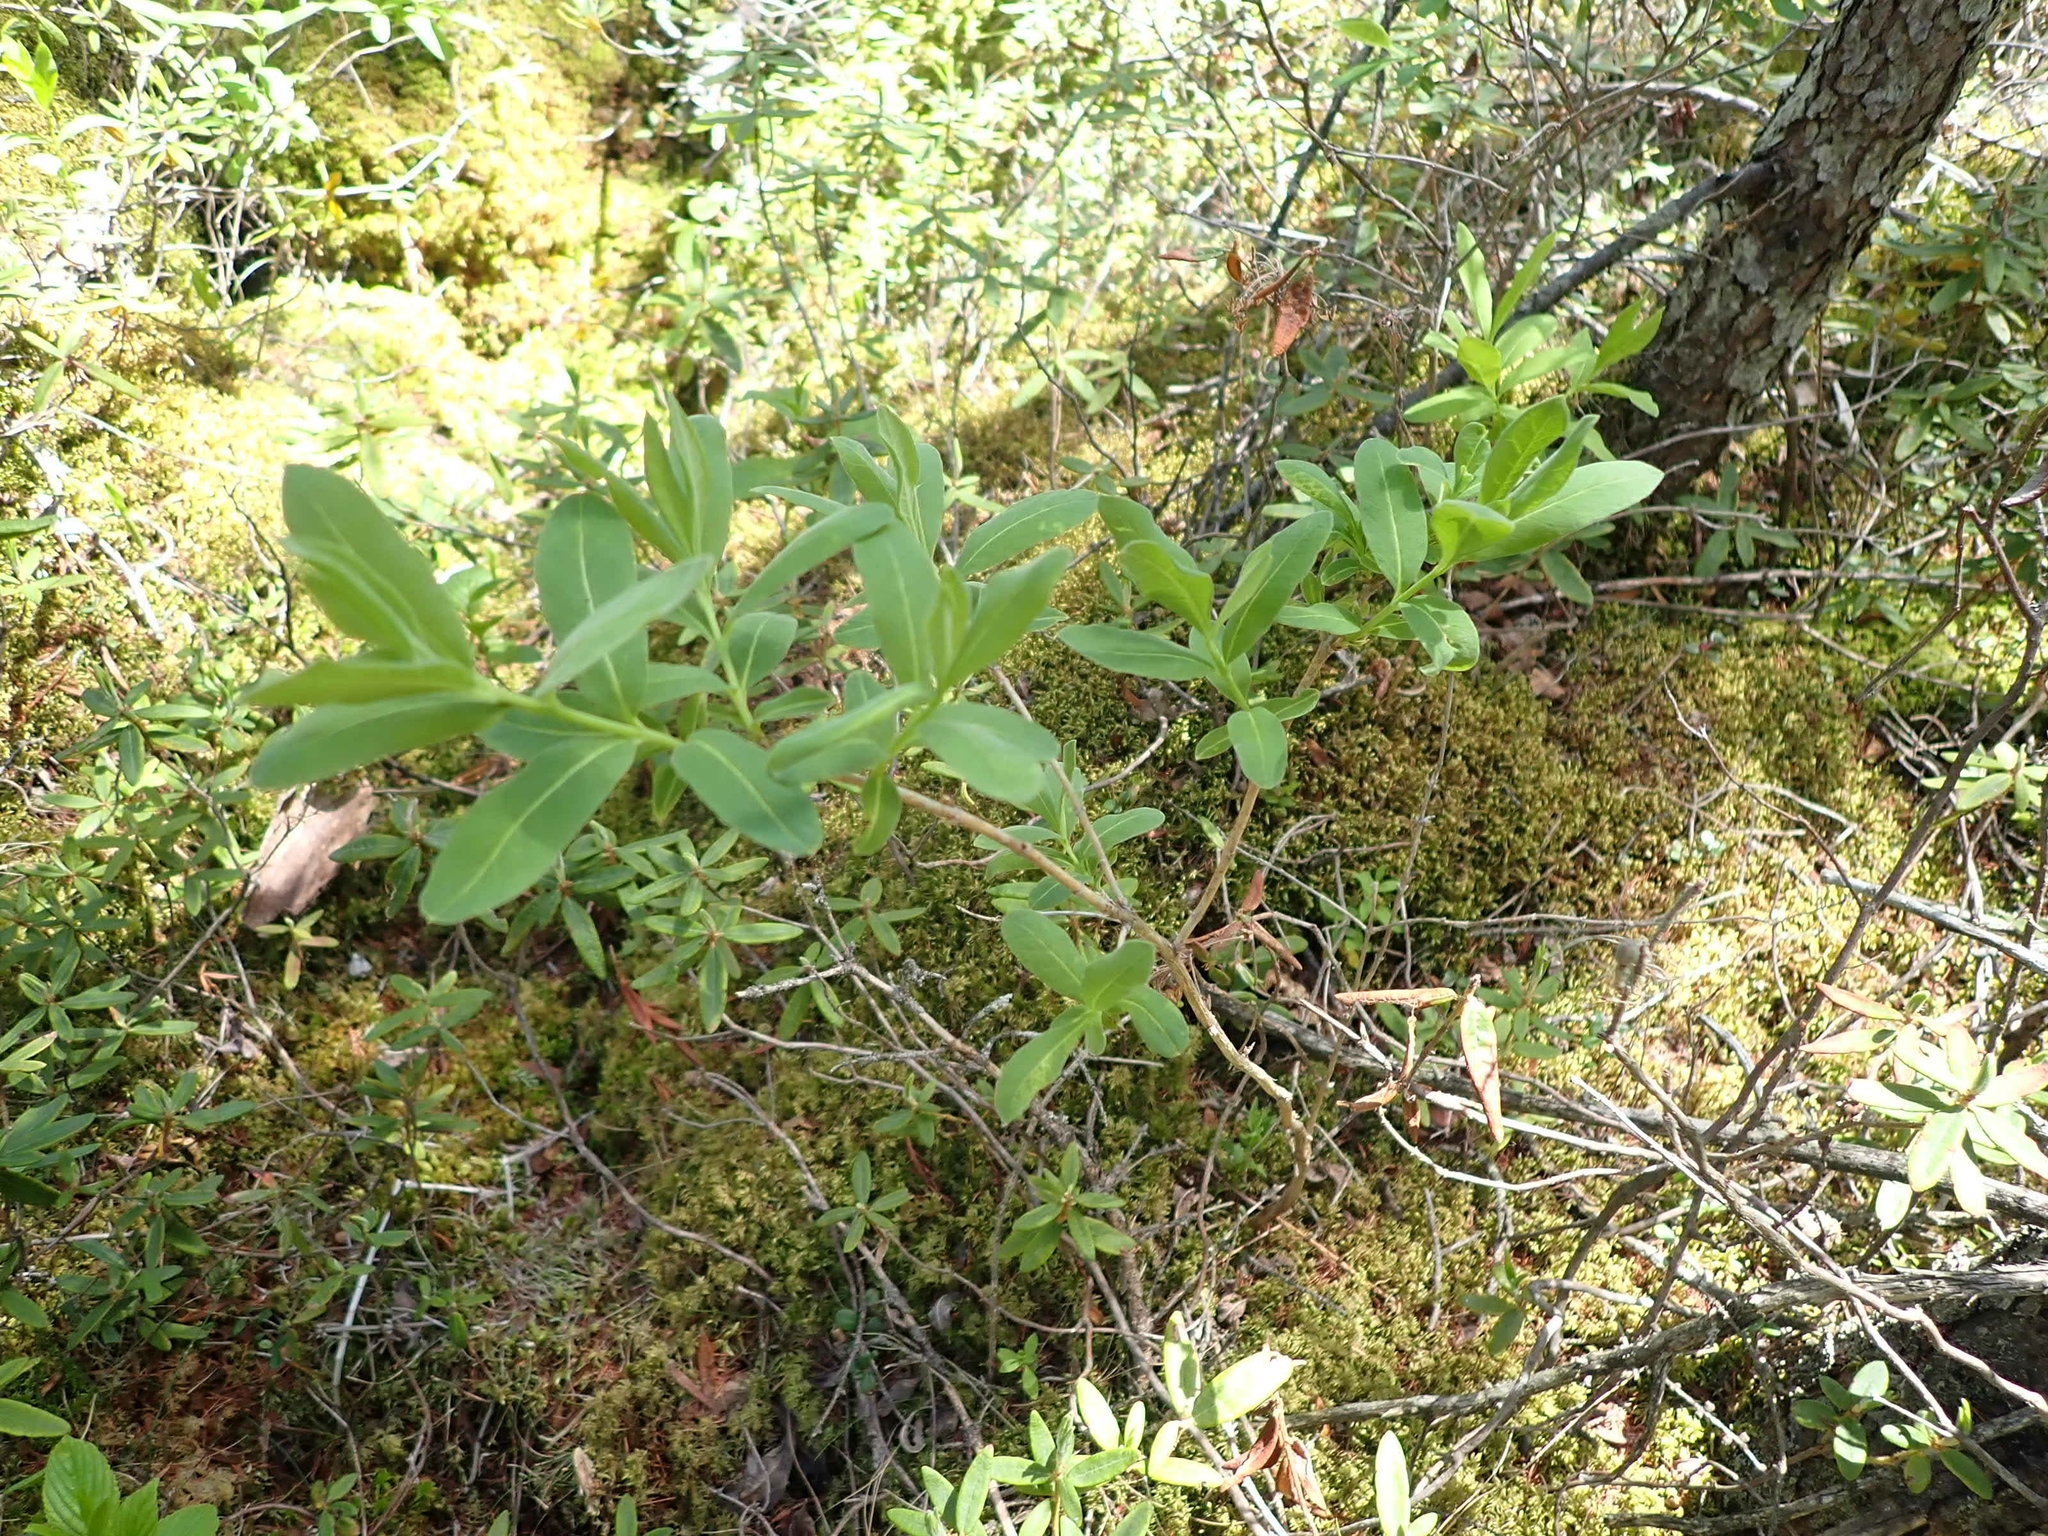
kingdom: Plantae
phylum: Tracheophyta
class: Magnoliopsida
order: Dipsacales
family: Caprifoliaceae
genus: Lonicera
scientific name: Lonicera villosa
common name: Mountain fly-honeysuckle
